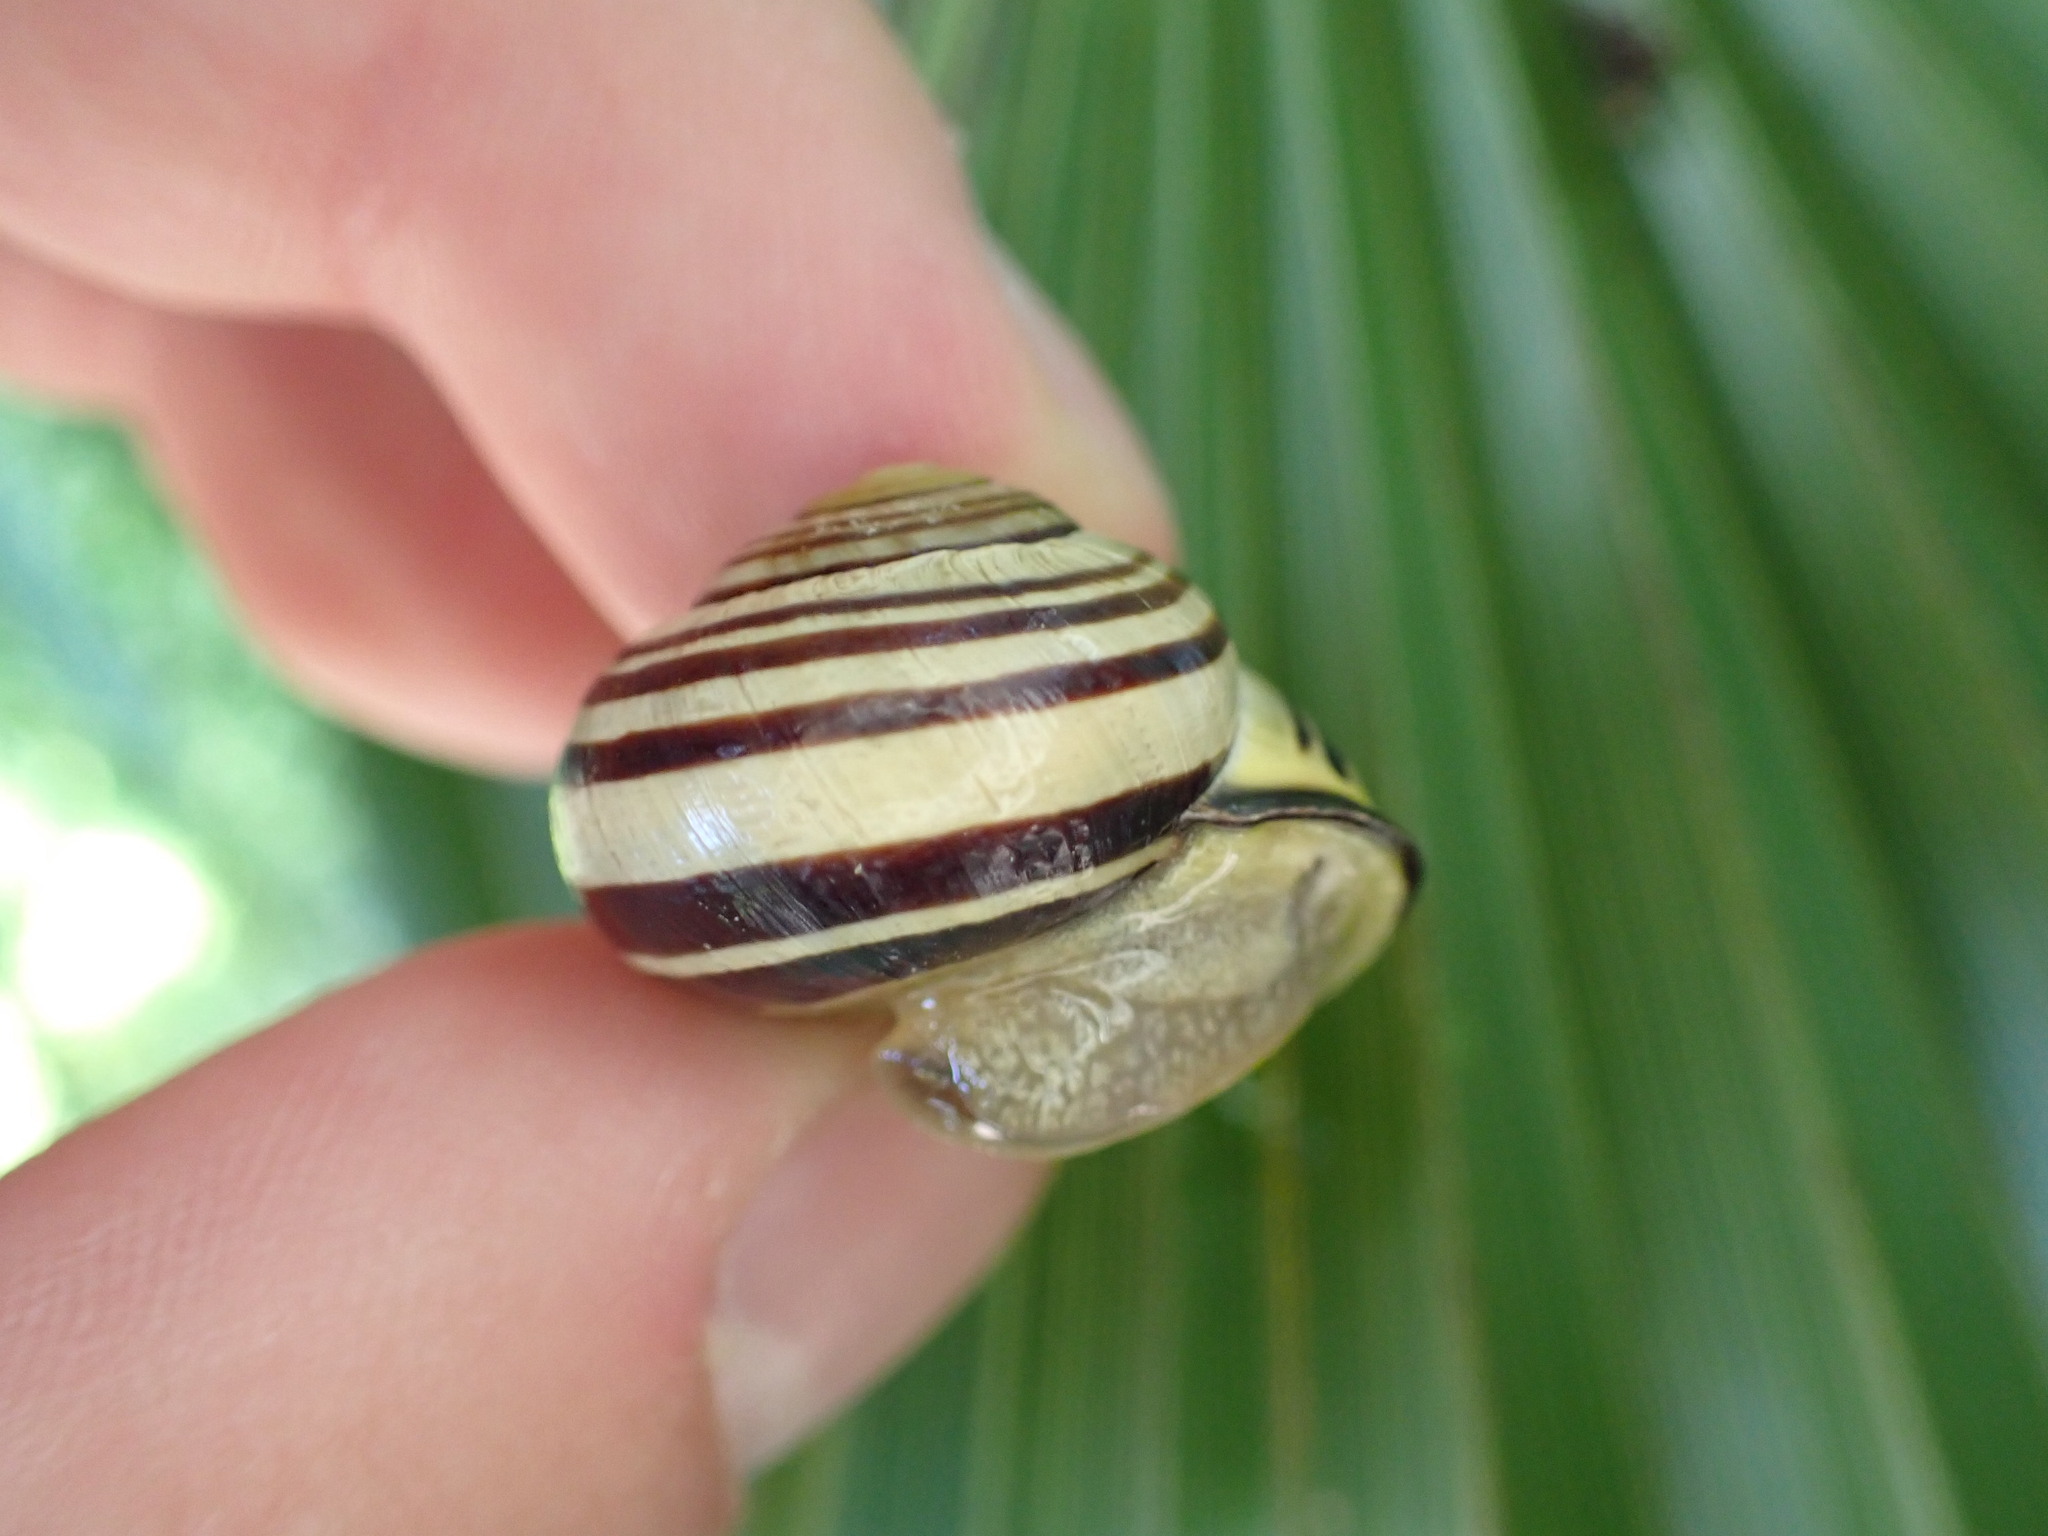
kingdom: Animalia
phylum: Mollusca
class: Gastropoda
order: Stylommatophora
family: Helicidae
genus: Cepaea
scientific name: Cepaea nemoralis
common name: Grovesnail
